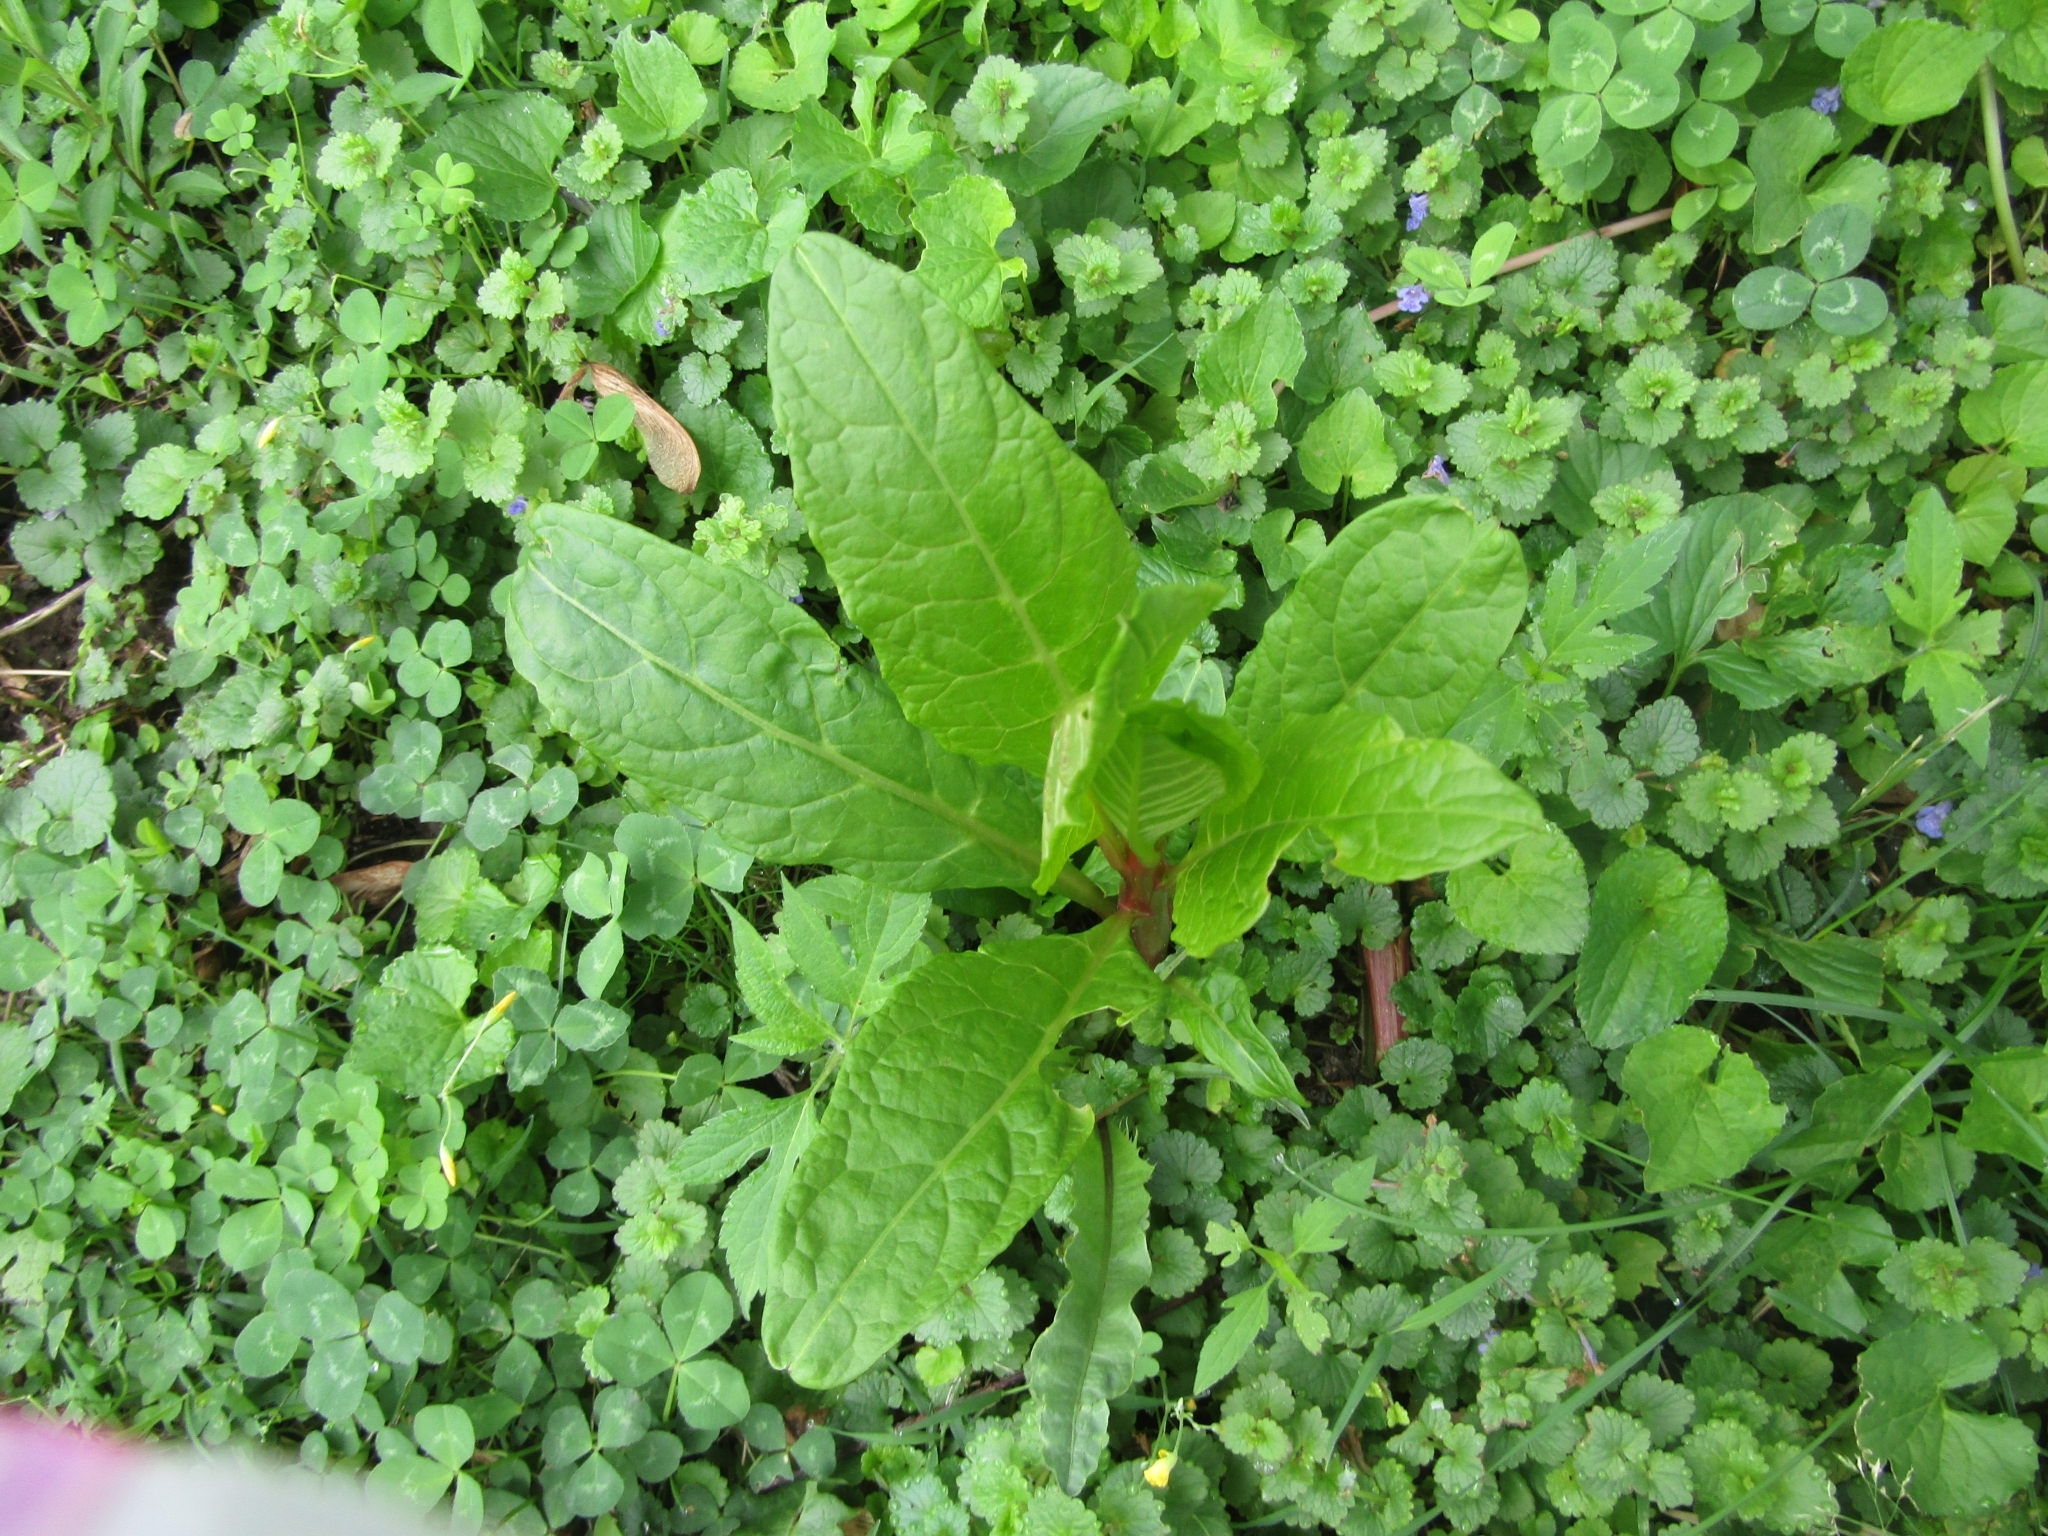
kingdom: Plantae
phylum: Tracheophyta
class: Magnoliopsida
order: Caryophyllales
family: Phytolaccaceae
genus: Phytolacca
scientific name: Phytolacca americana
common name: American pokeweed
